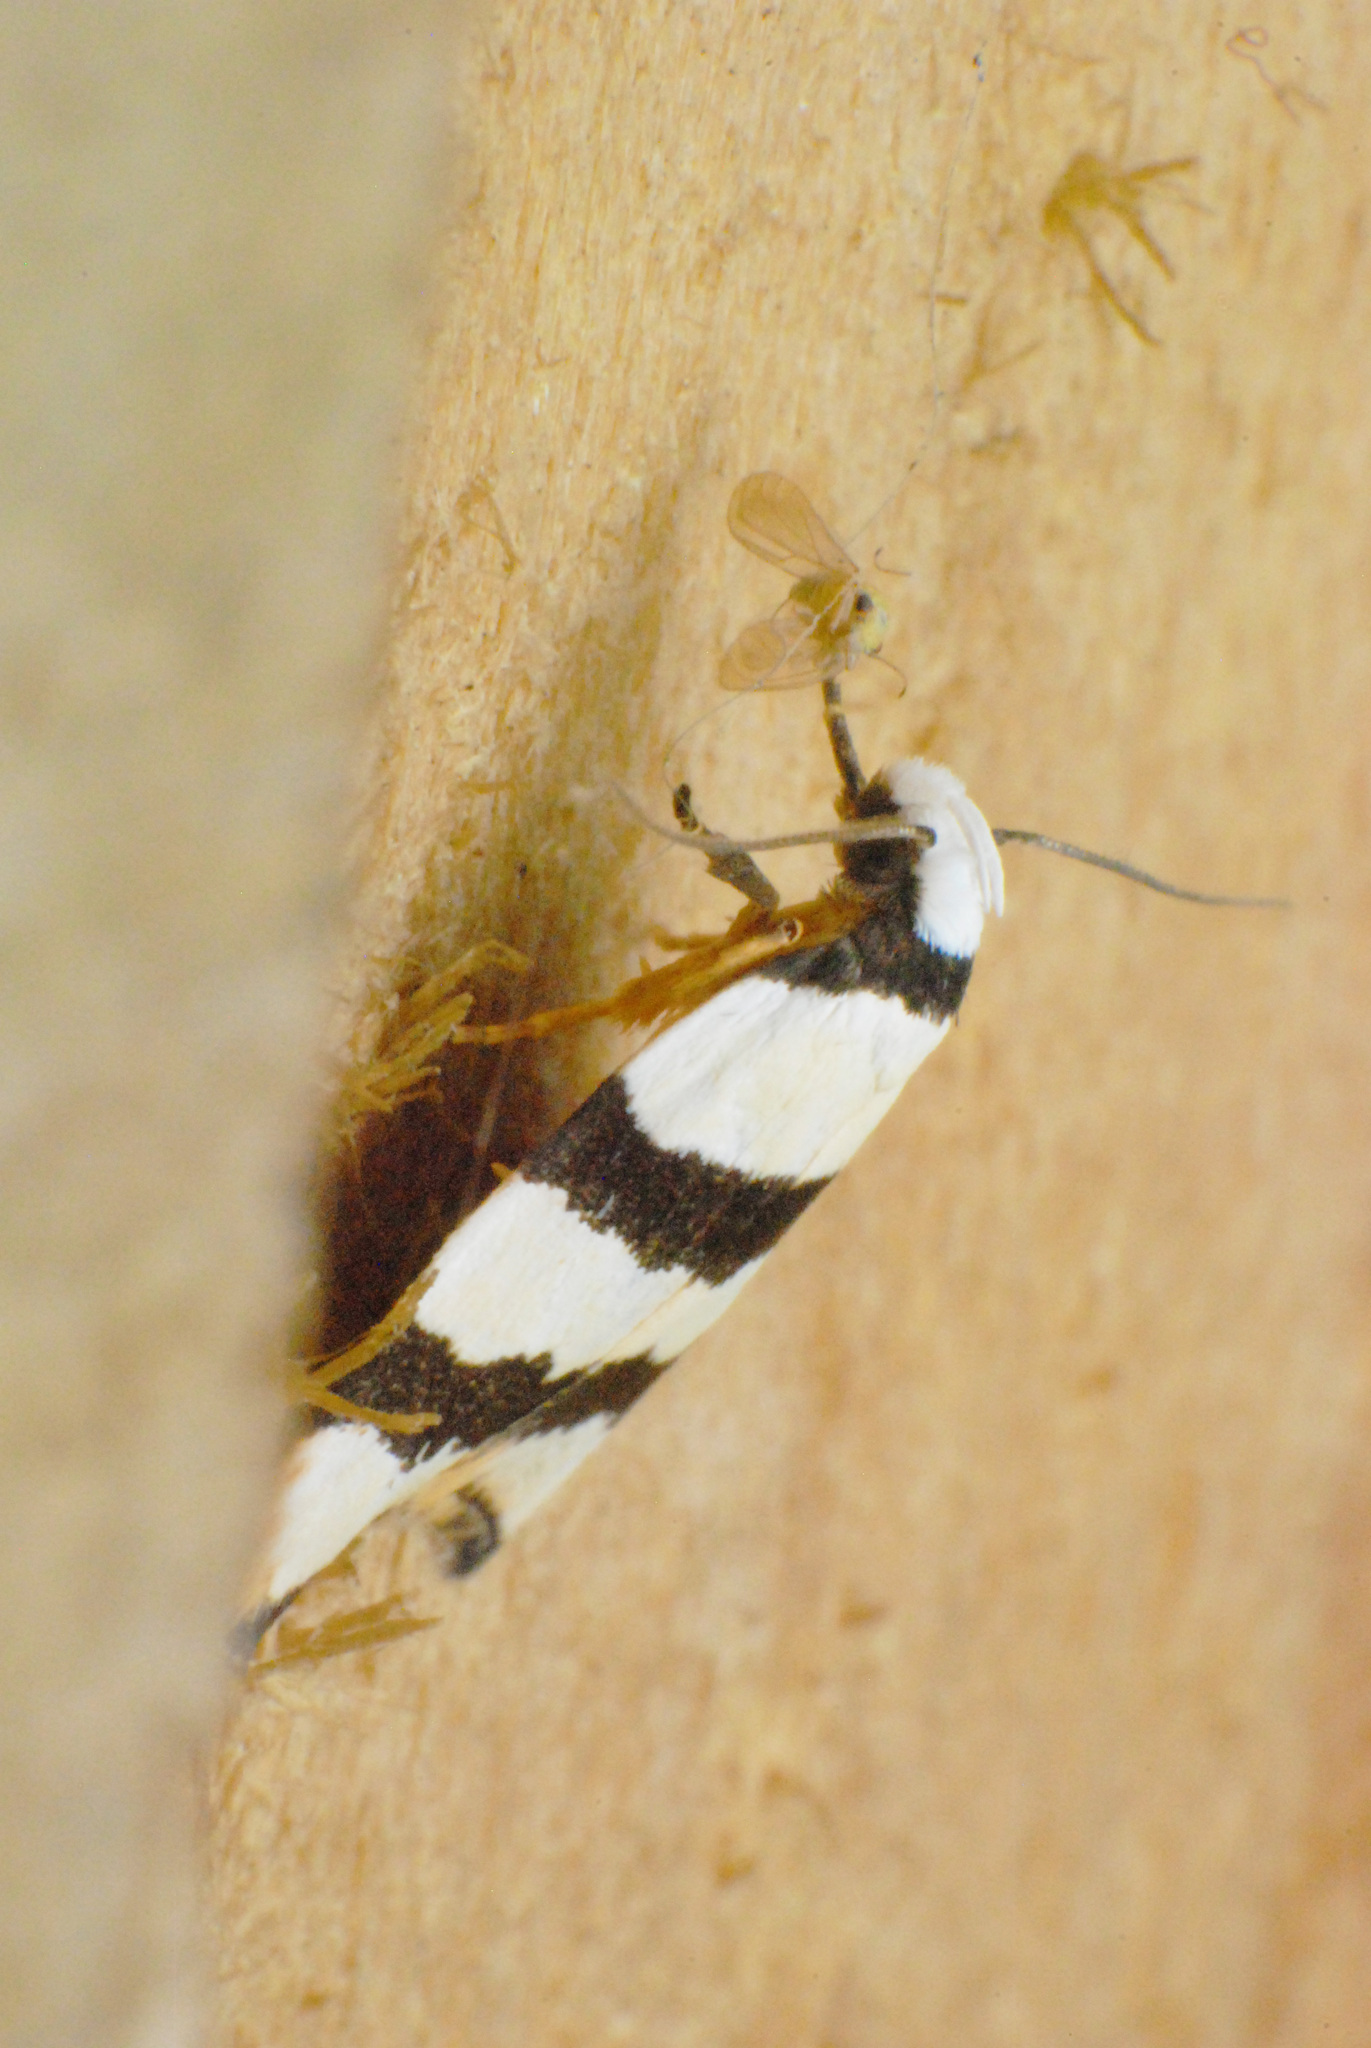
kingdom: Animalia
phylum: Arthropoda
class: Insecta
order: Lepidoptera
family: Oecophoridae
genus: Zonopetala
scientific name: Zonopetala clerota
